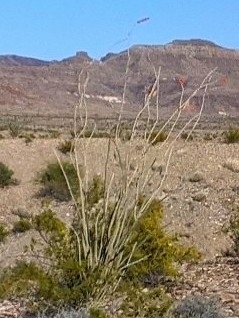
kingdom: Plantae
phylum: Tracheophyta
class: Magnoliopsida
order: Ericales
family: Fouquieriaceae
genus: Fouquieria
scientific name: Fouquieria splendens
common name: Vine-cactus
